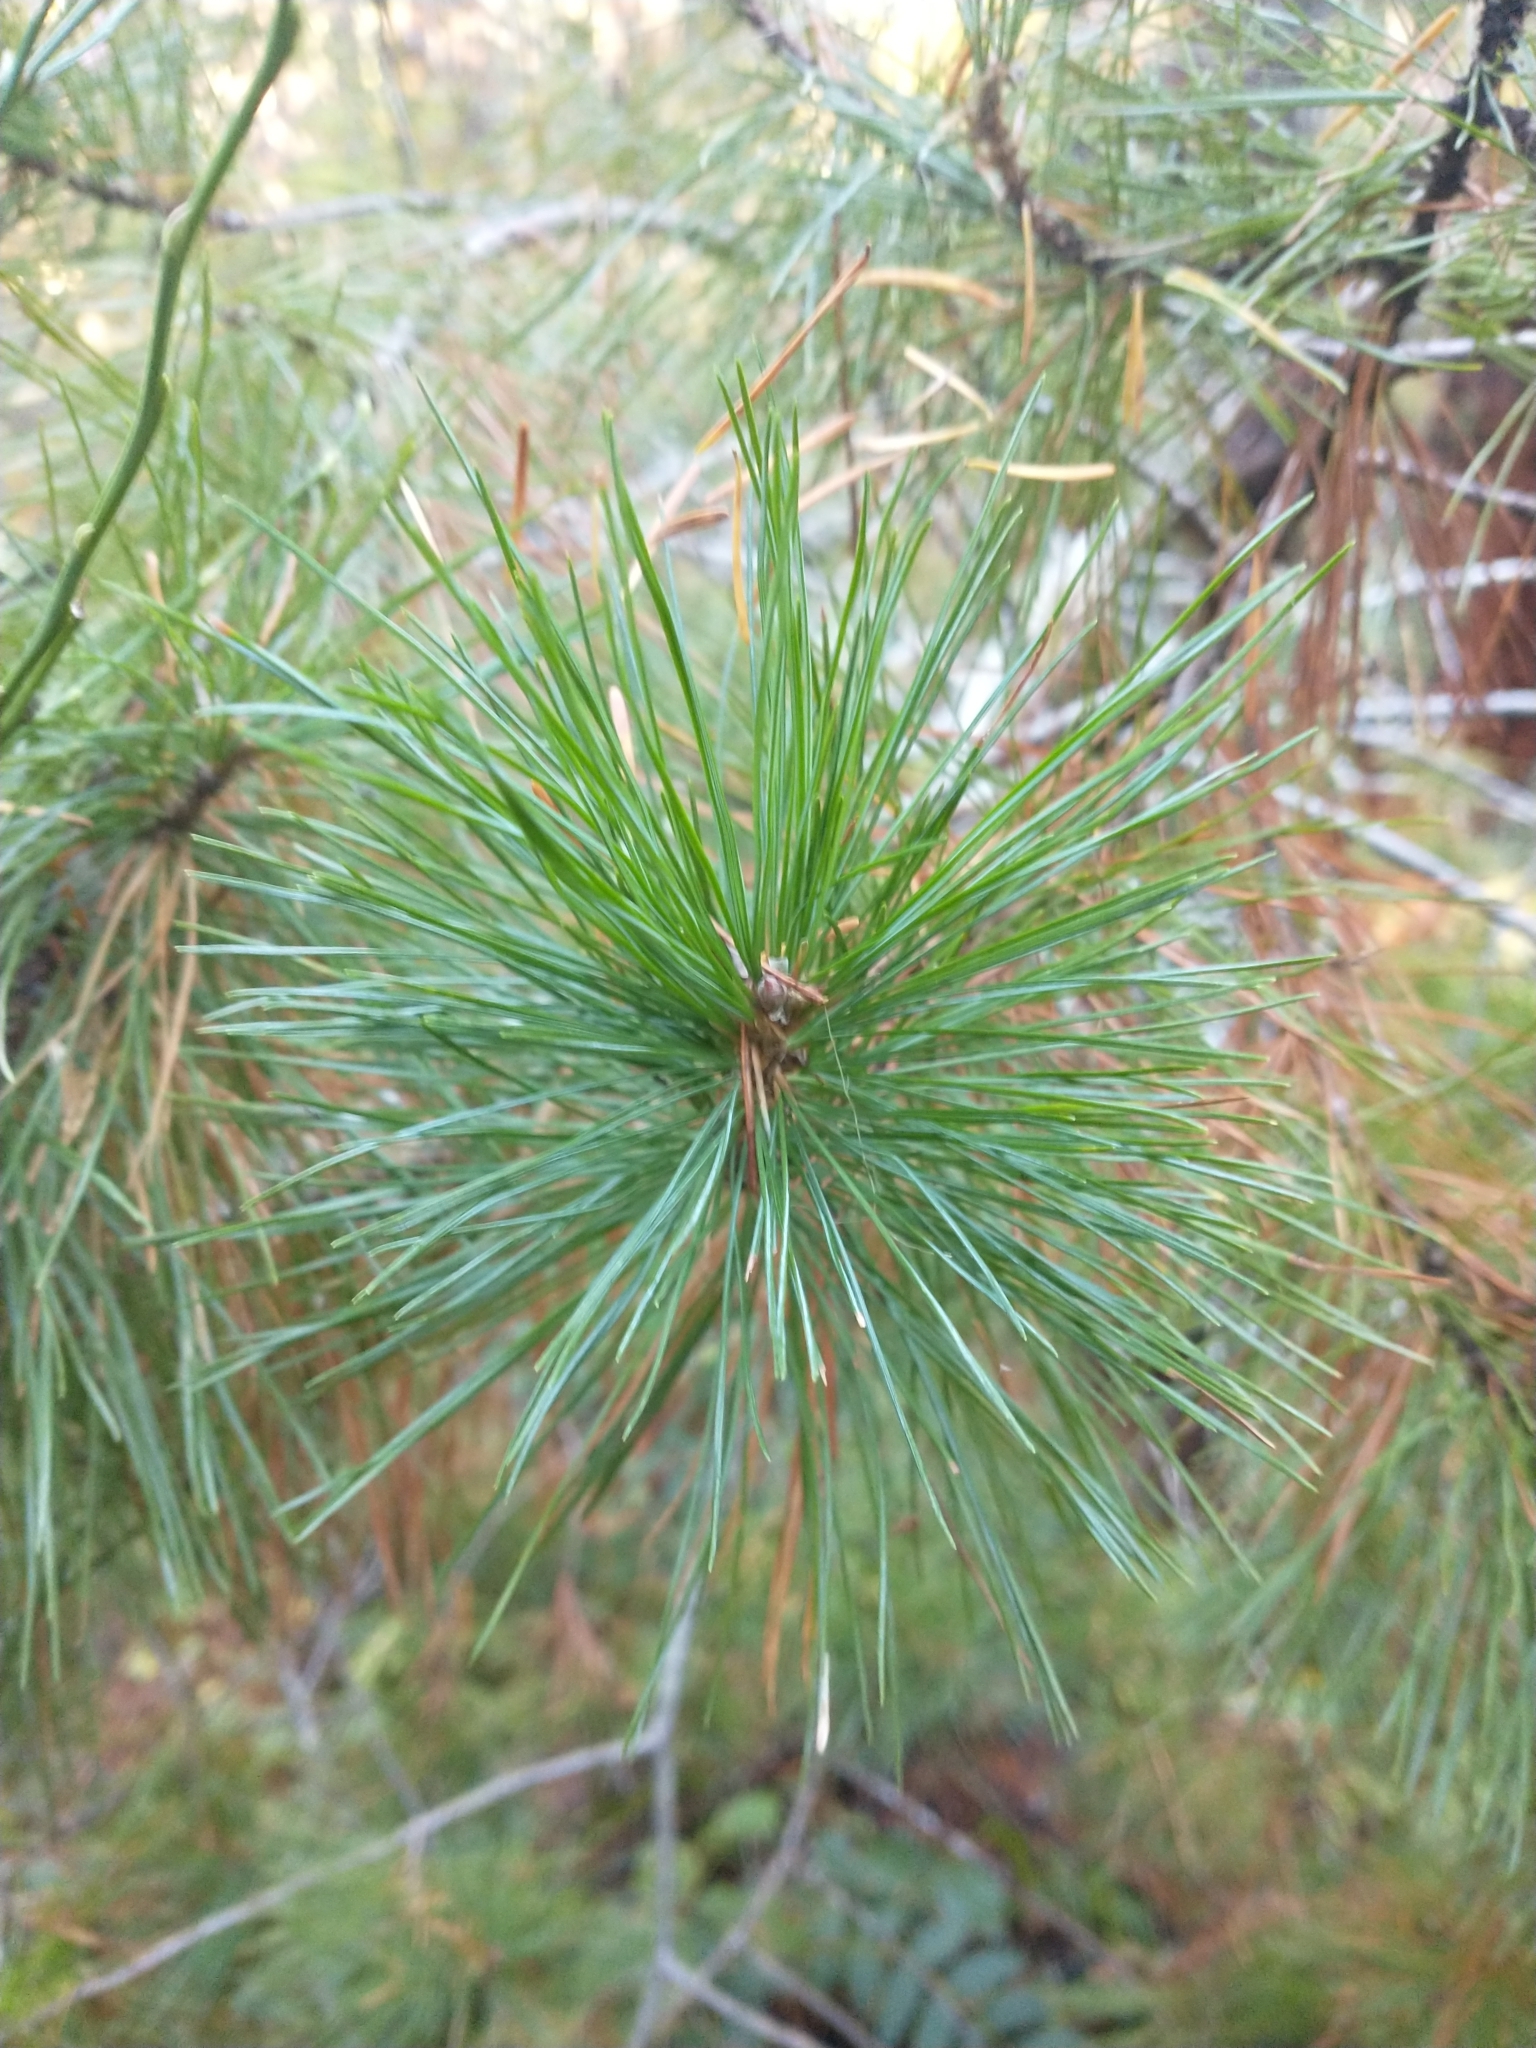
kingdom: Plantae
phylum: Tracheophyta
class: Pinopsida
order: Pinales
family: Pinaceae
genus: Pinus
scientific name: Pinus monticola
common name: Western white pine
